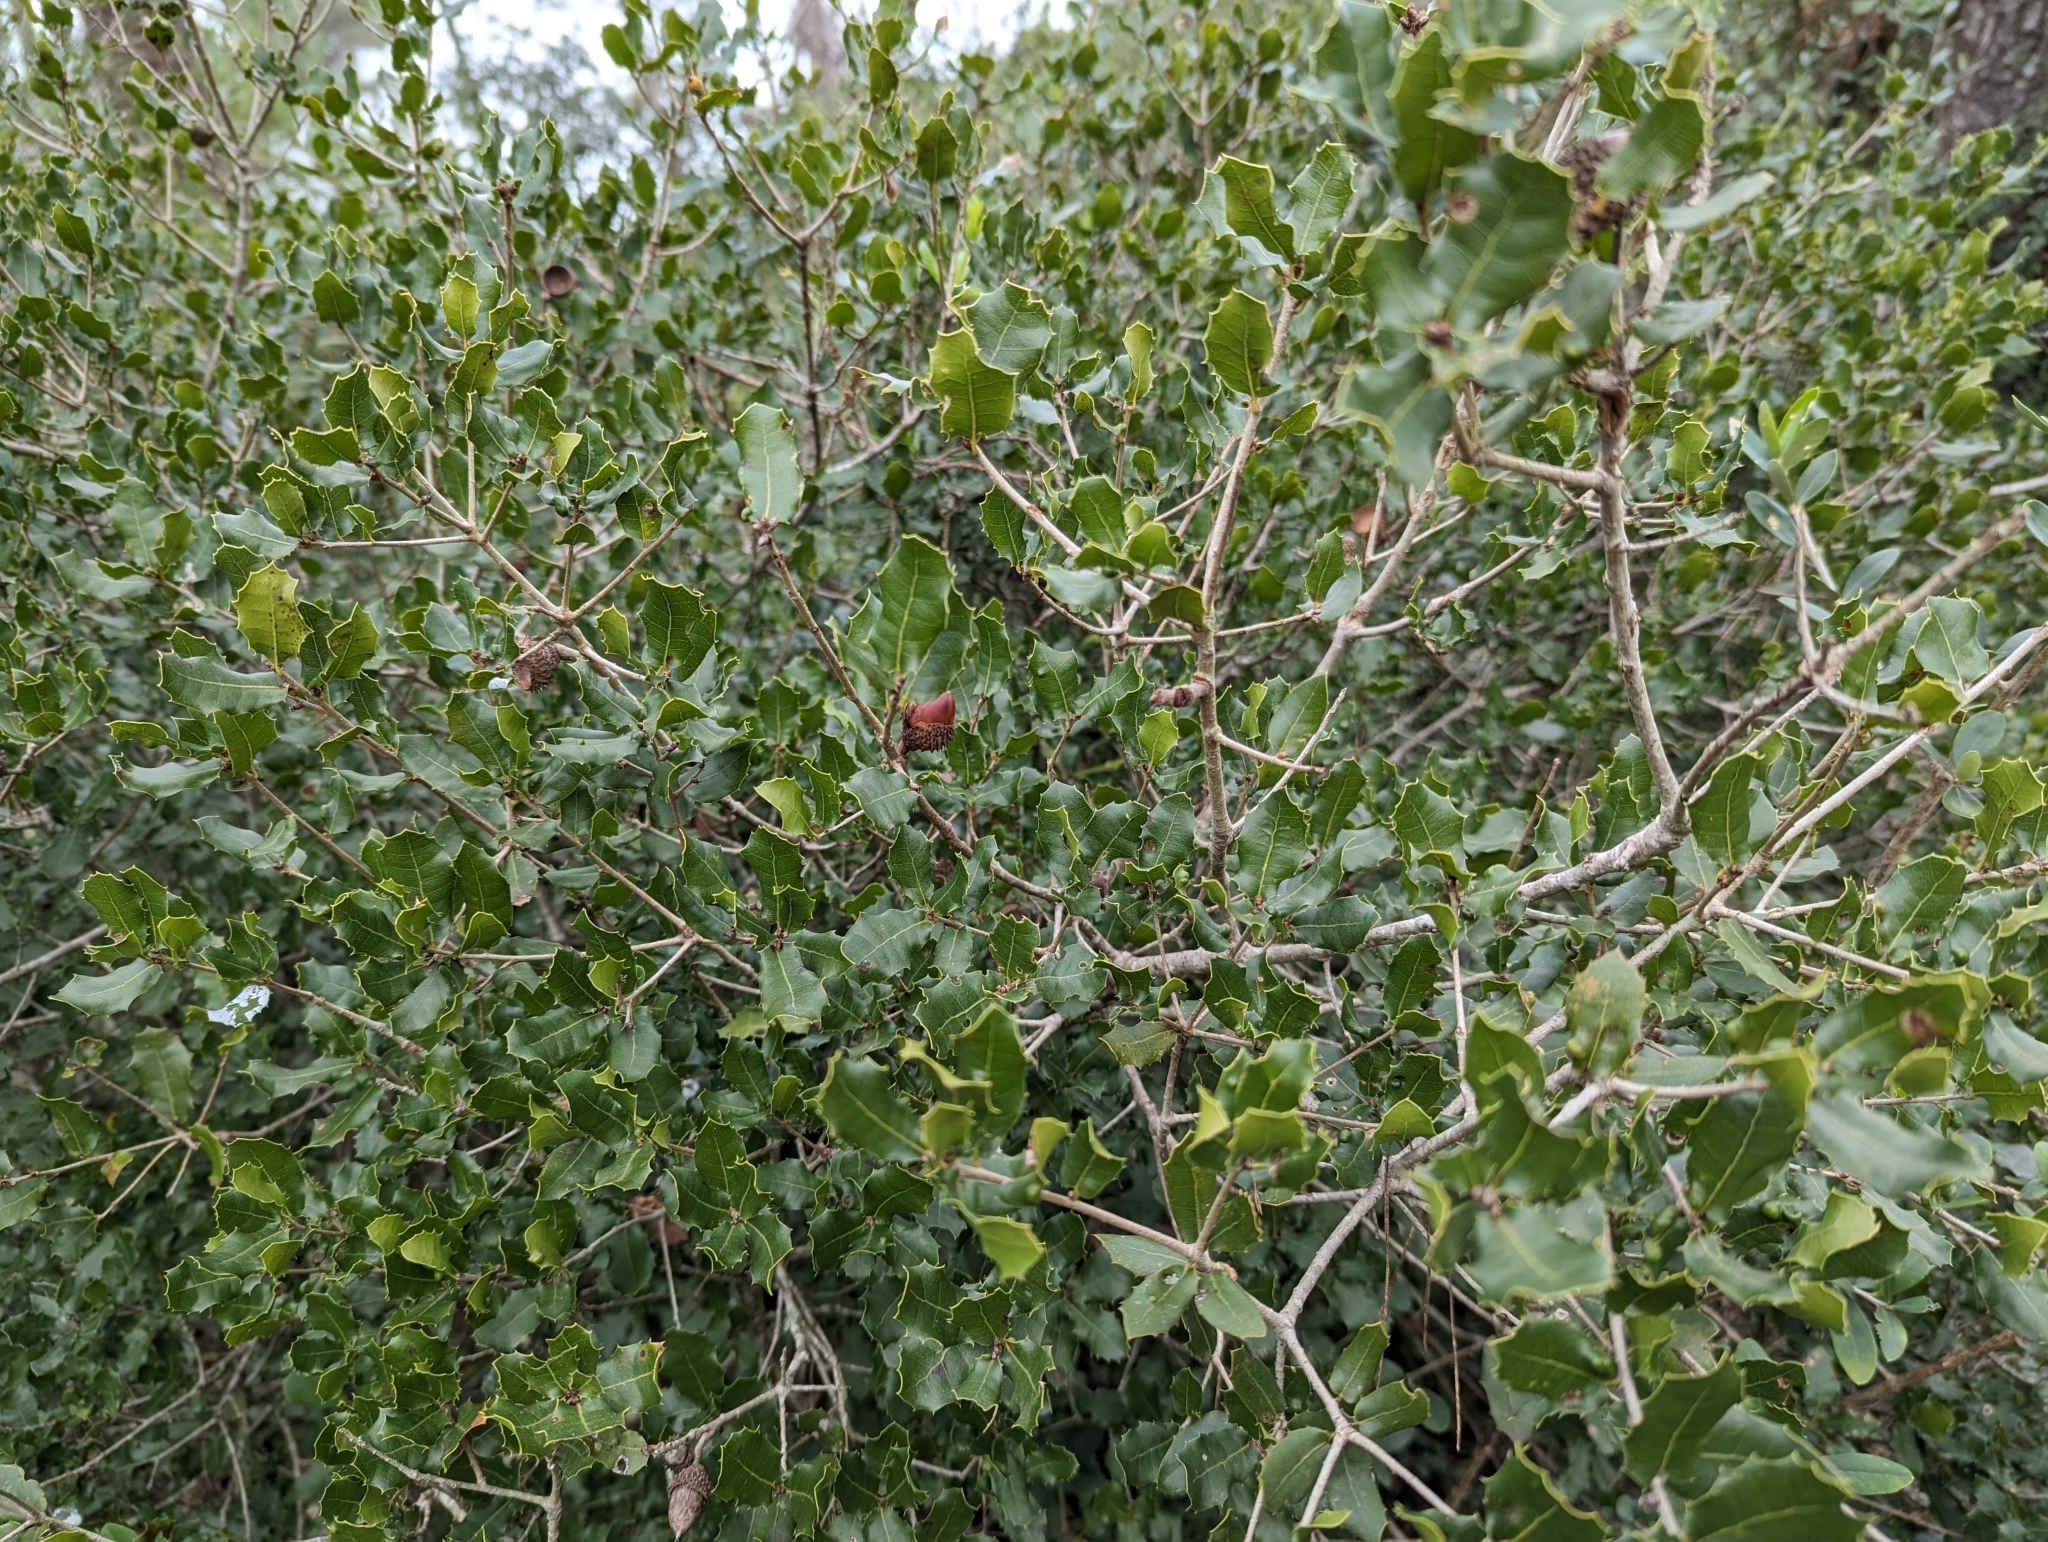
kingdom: Plantae
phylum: Tracheophyta
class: Magnoliopsida
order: Fagales
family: Fagaceae
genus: Quercus
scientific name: Quercus coccifera
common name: Kermes oak
